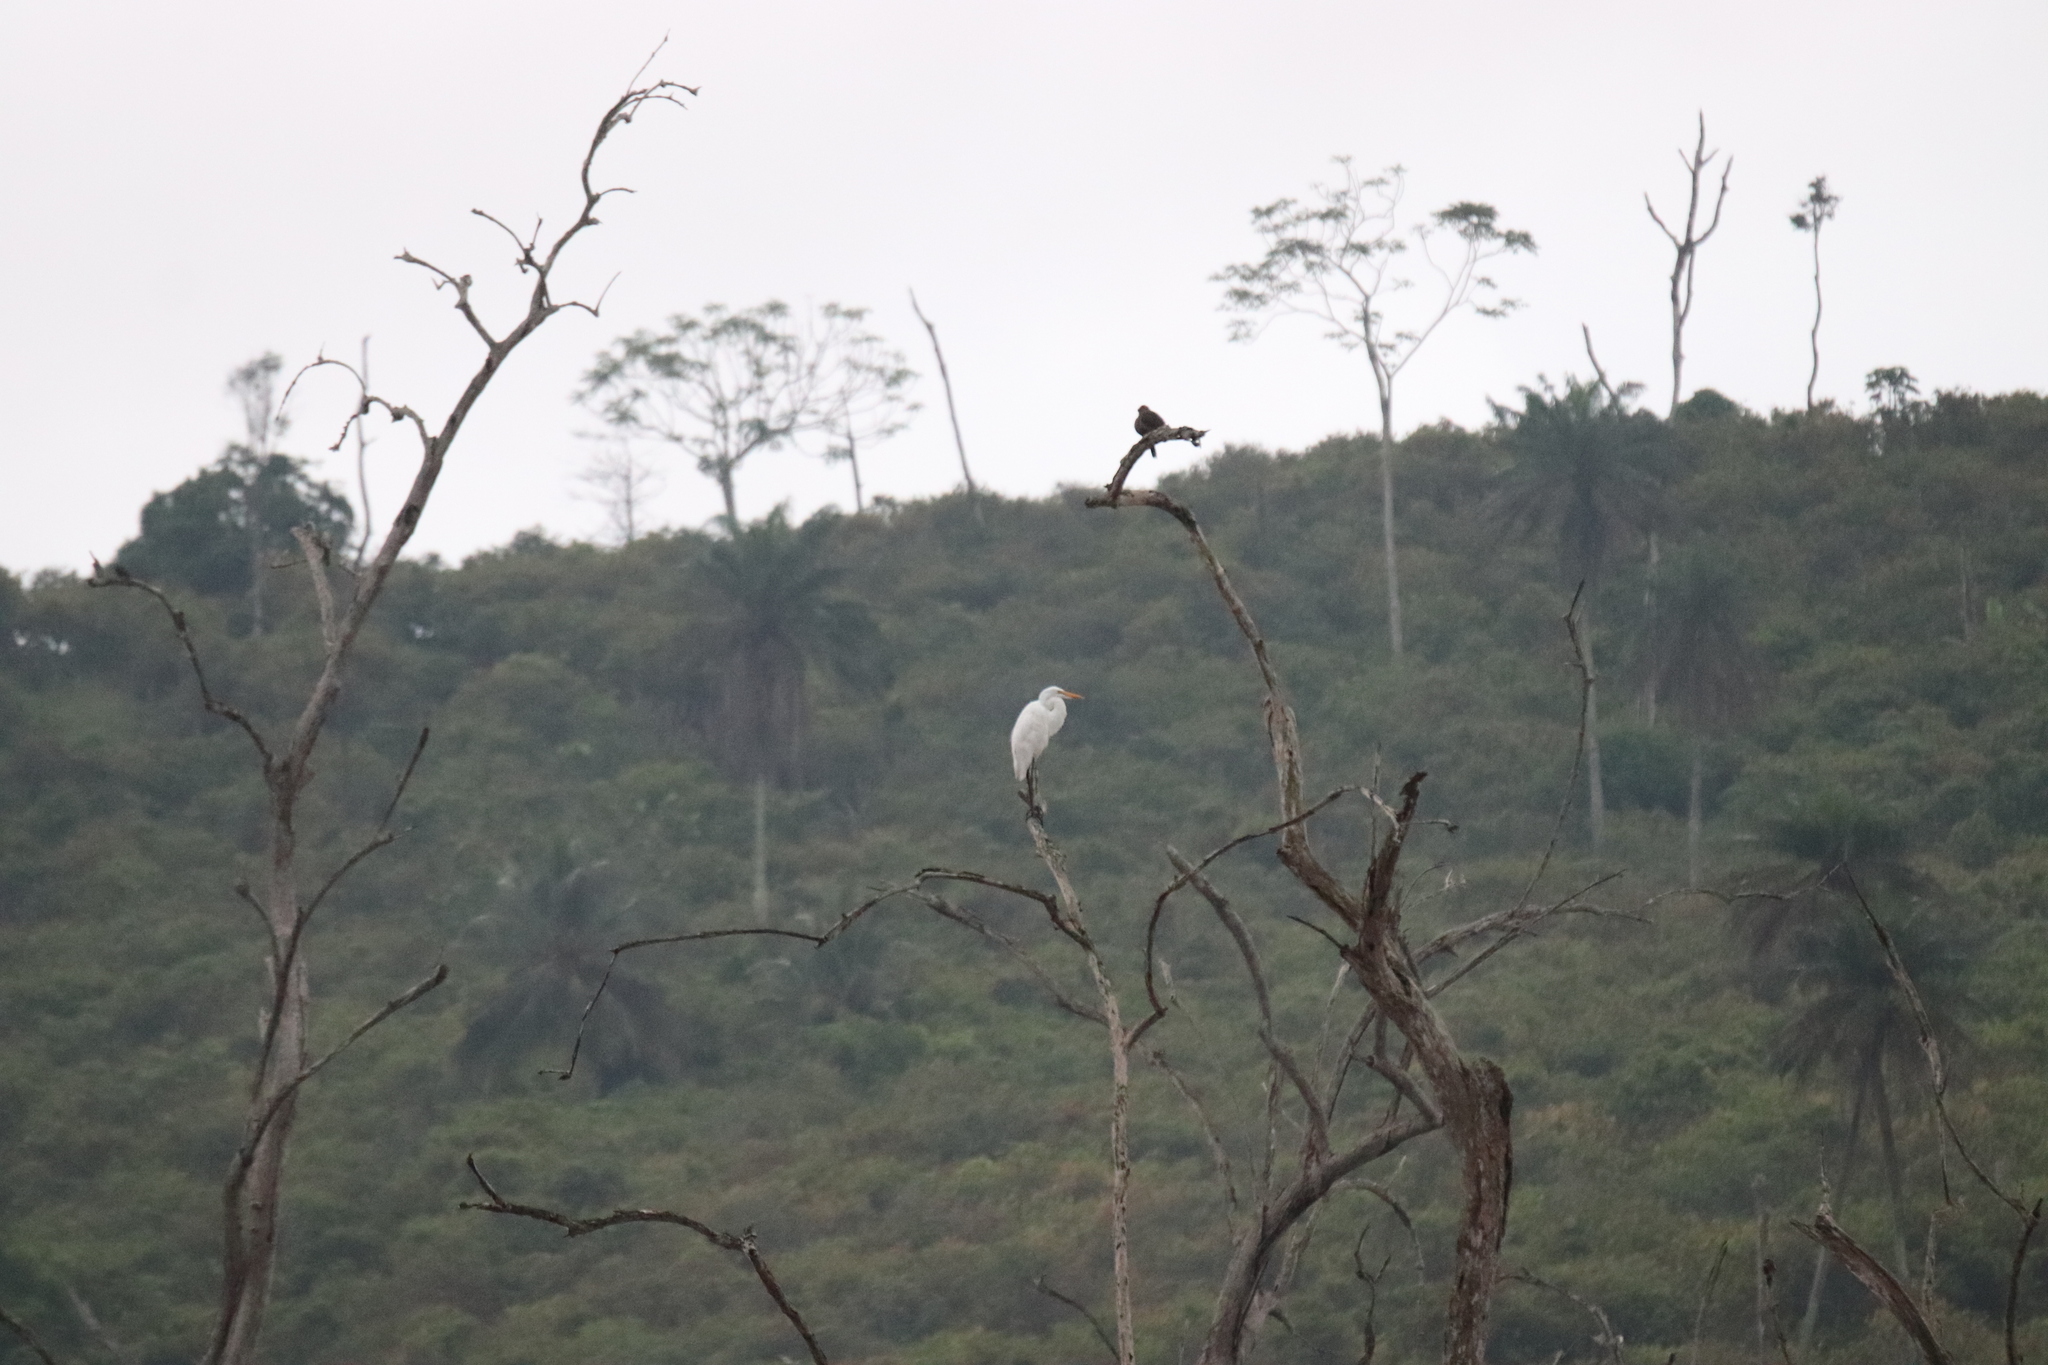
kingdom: Animalia
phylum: Chordata
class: Aves
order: Pelecaniformes
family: Ardeidae
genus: Ardea
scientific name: Ardea alba
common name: Great egret
